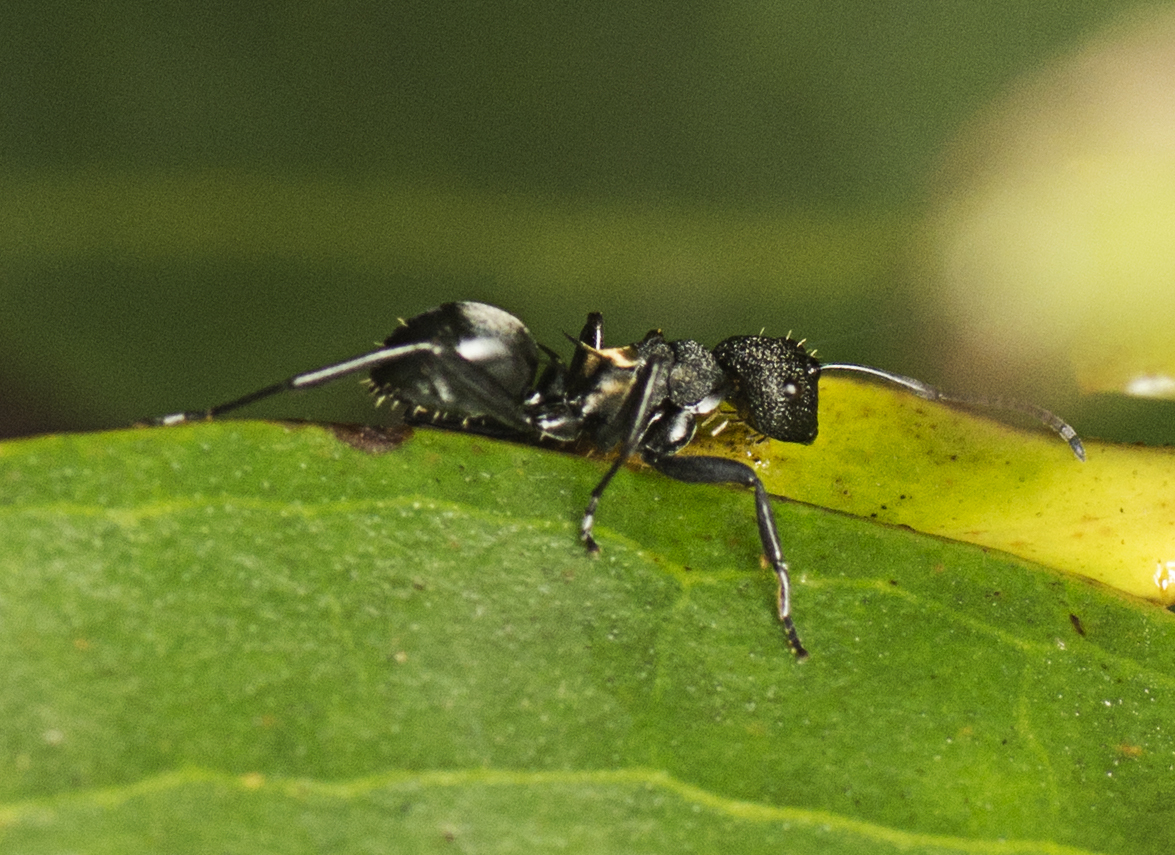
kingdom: Animalia
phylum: Arthropoda
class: Insecta
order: Hymenoptera
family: Formicidae
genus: Polyrhachis
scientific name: Polyrhachis machaon
